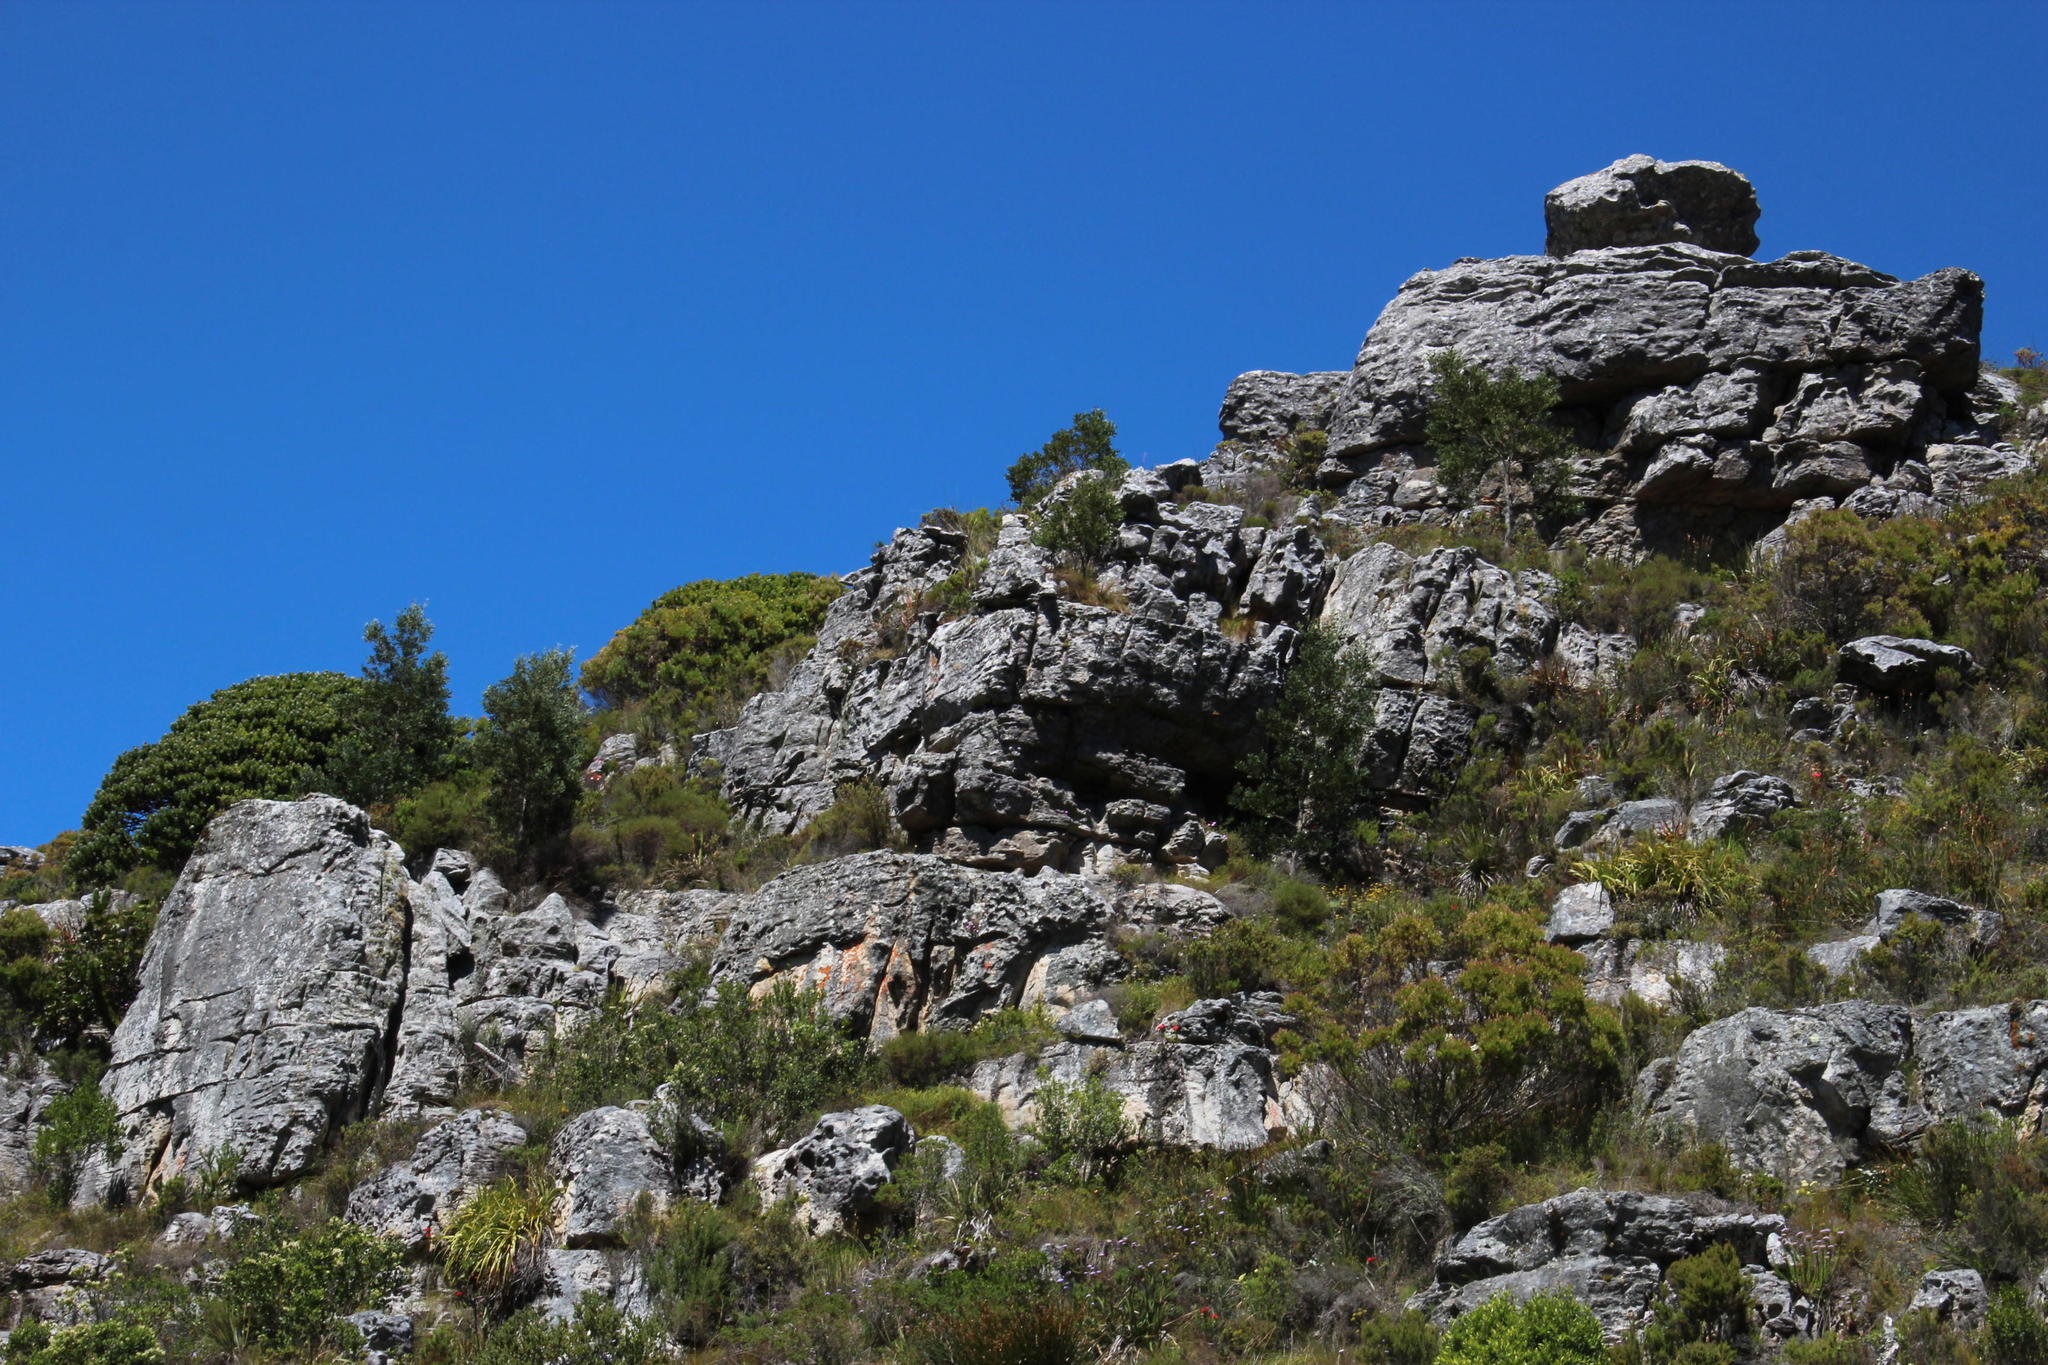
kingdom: Plantae
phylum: Tracheophyta
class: Magnoliopsida
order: Fabales
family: Fabaceae
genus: Acacia
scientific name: Acacia melanoxylon
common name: Blackwood
